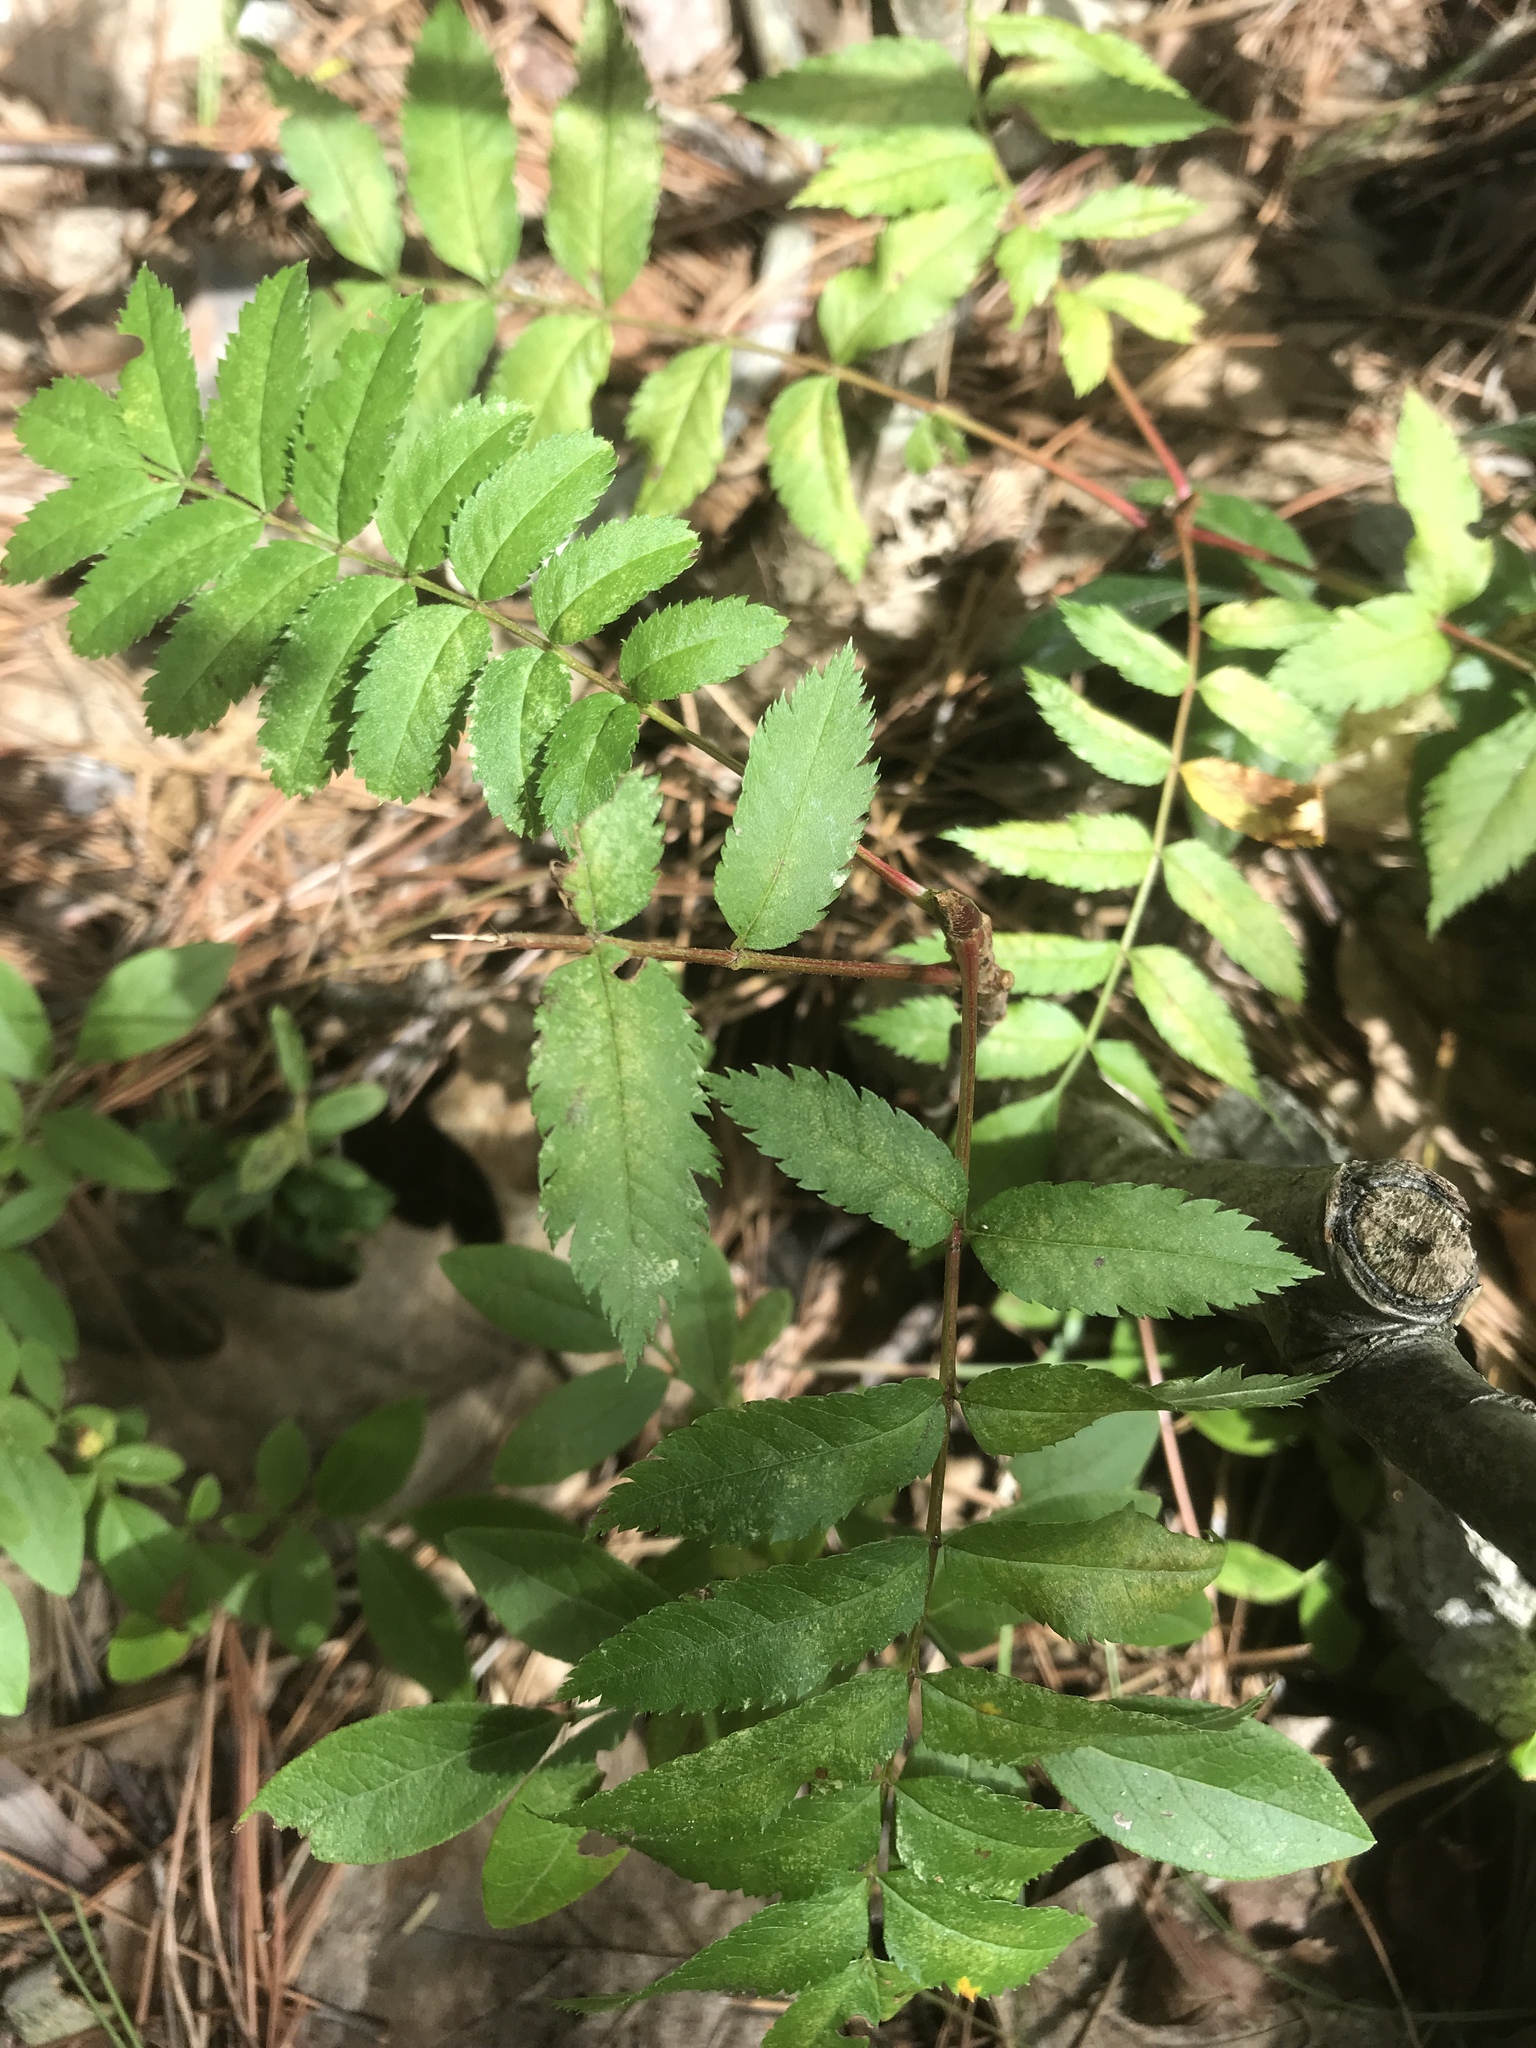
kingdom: Plantae
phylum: Tracheophyta
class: Magnoliopsida
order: Rosales
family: Rosaceae
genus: Sorbus
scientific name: Sorbus americana
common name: American mountain-ash
